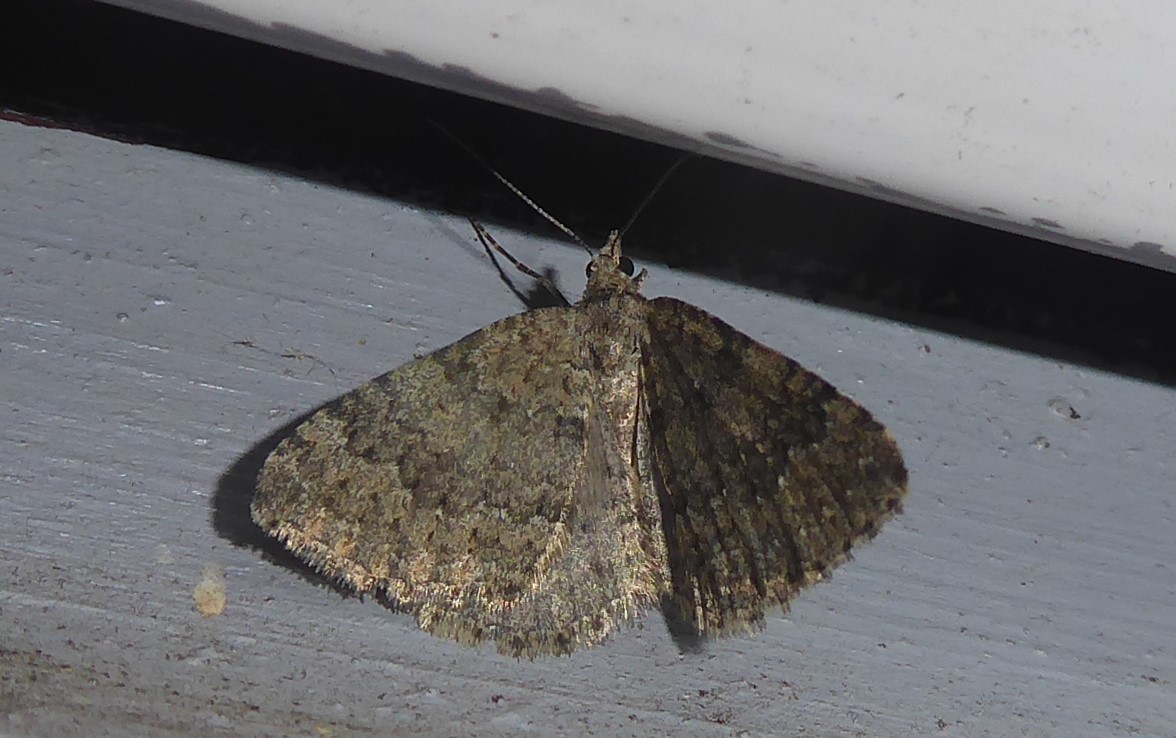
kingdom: Animalia
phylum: Arthropoda
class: Insecta
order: Lepidoptera
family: Geometridae
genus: Helastia
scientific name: Helastia corcularia
